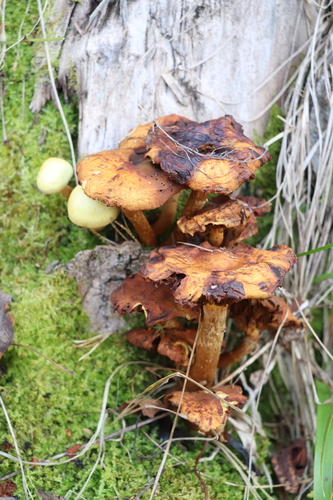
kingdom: Fungi
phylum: Basidiomycota
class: Agaricomycetes
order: Agaricales
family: Hymenogastraceae
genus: Flammula
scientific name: Flammula alnicola
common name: Alder scalycap
